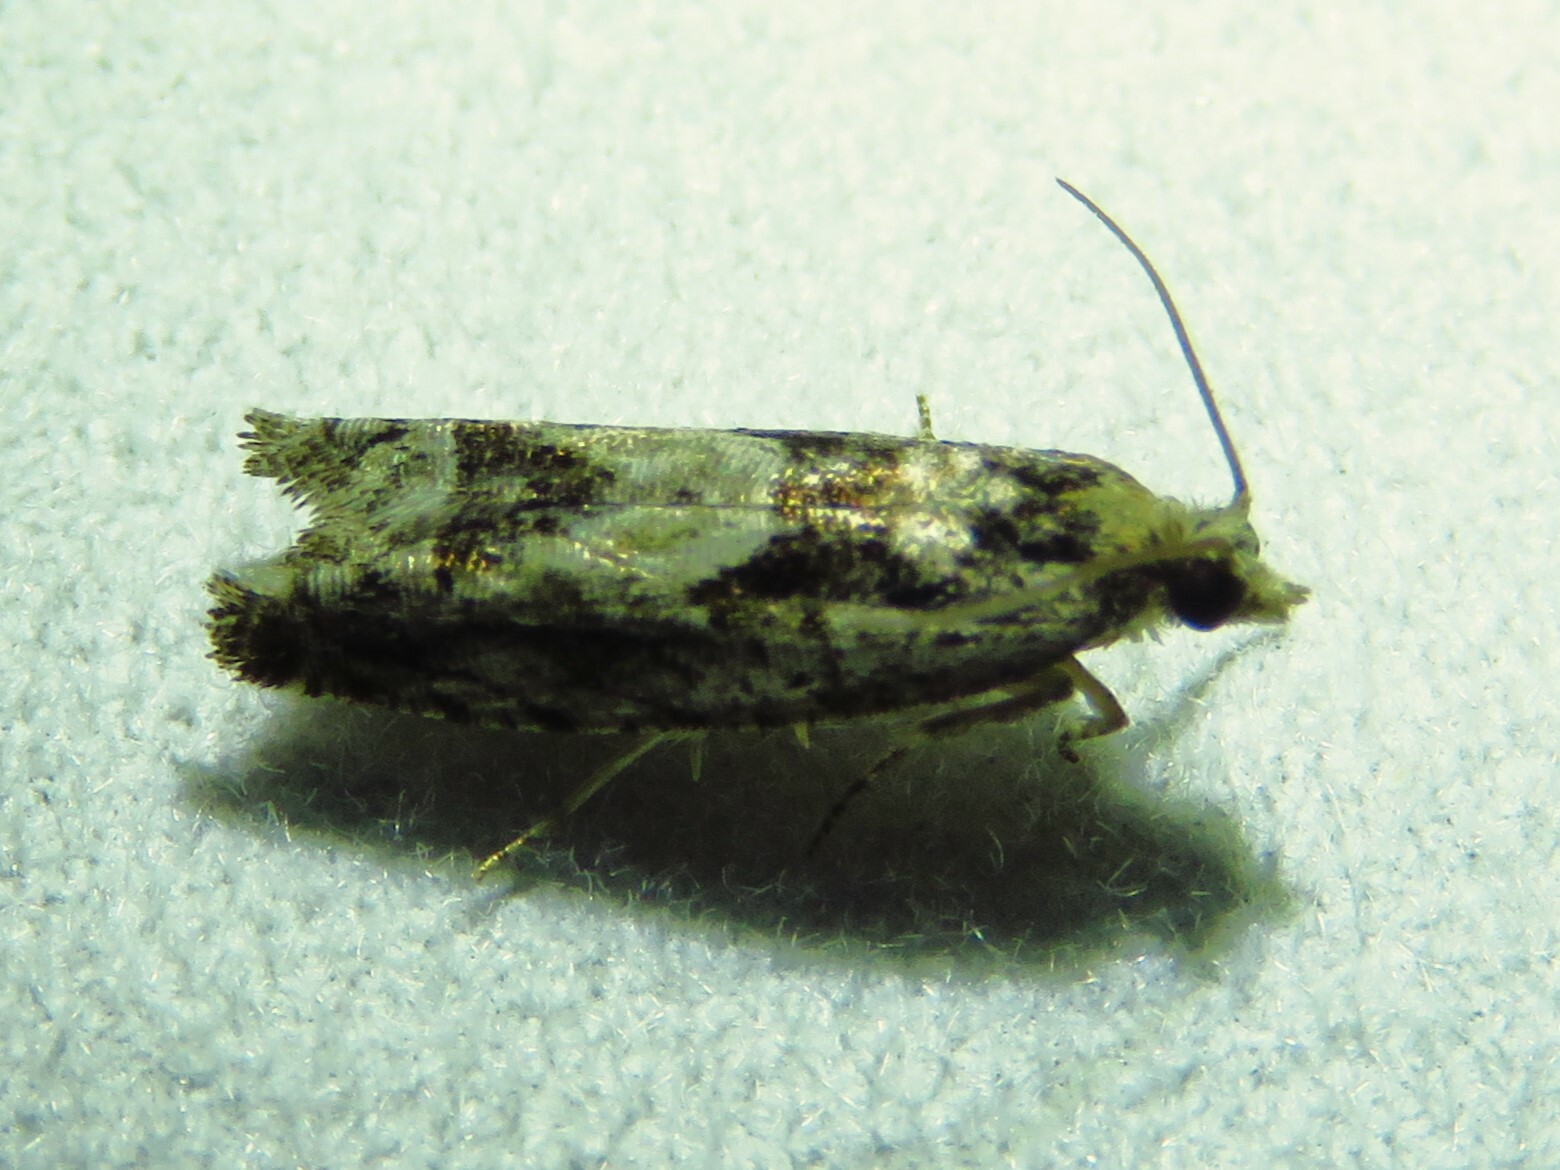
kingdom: Animalia
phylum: Arthropoda
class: Insecta
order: Lepidoptera
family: Tortricidae
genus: Pseudexentera
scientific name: Pseudexentera hodsoni
